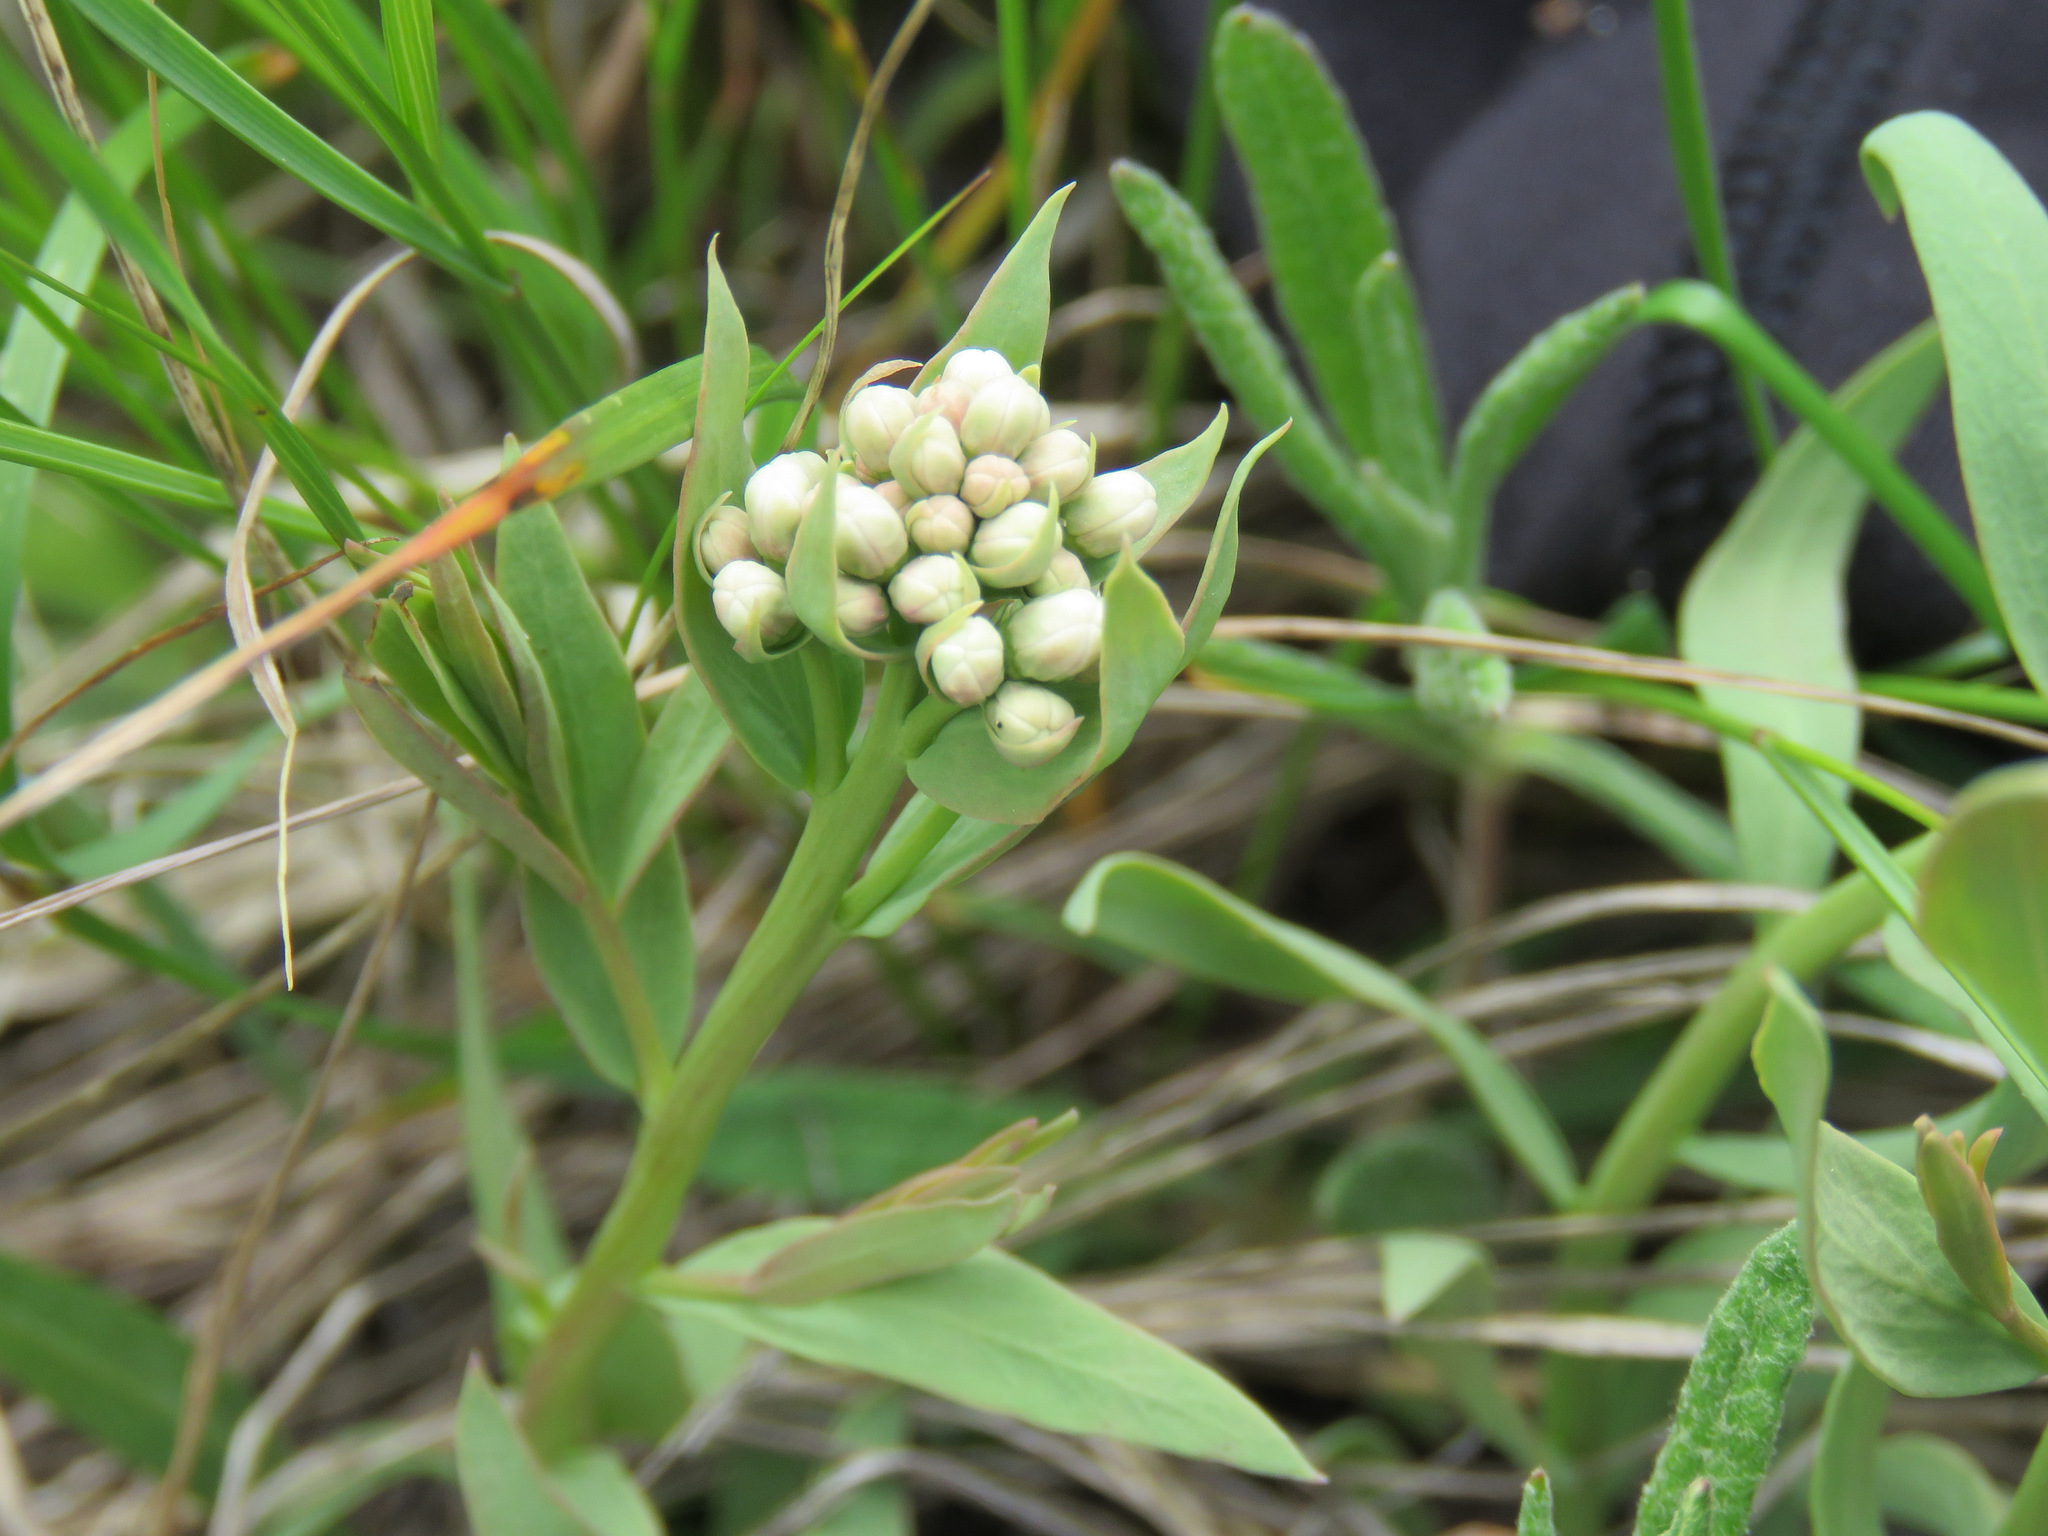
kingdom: Plantae
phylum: Tracheophyta
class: Magnoliopsida
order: Santalales
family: Comandraceae
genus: Comandra
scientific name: Comandra umbellata
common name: Bastard toadflax
